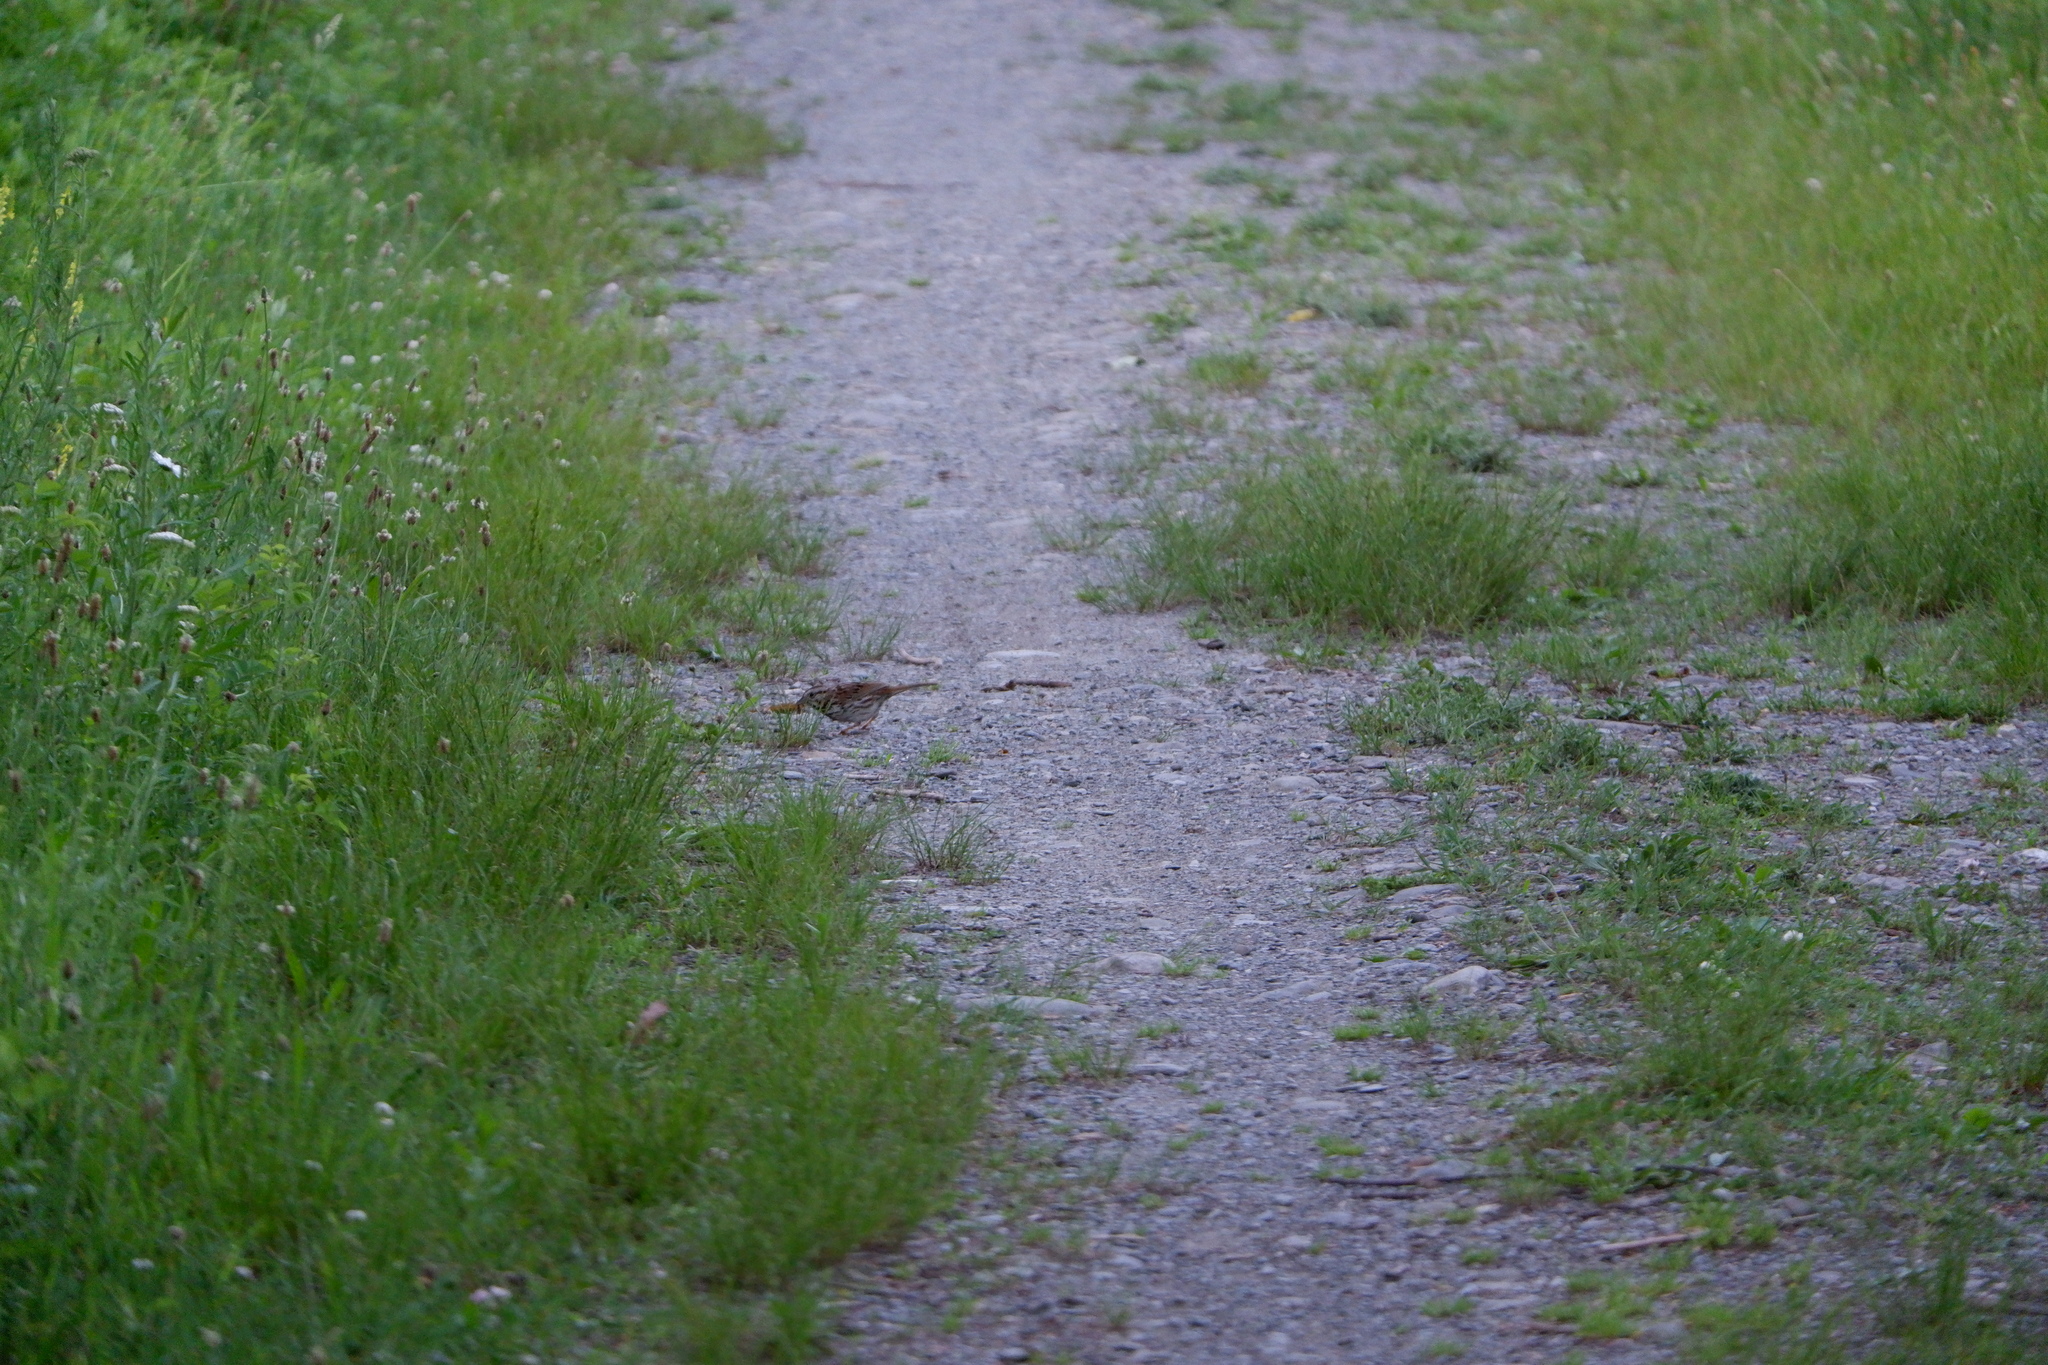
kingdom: Animalia
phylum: Chordata
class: Aves
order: Passeriformes
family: Passerellidae
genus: Melospiza
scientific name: Melospiza melodia
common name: Song sparrow
